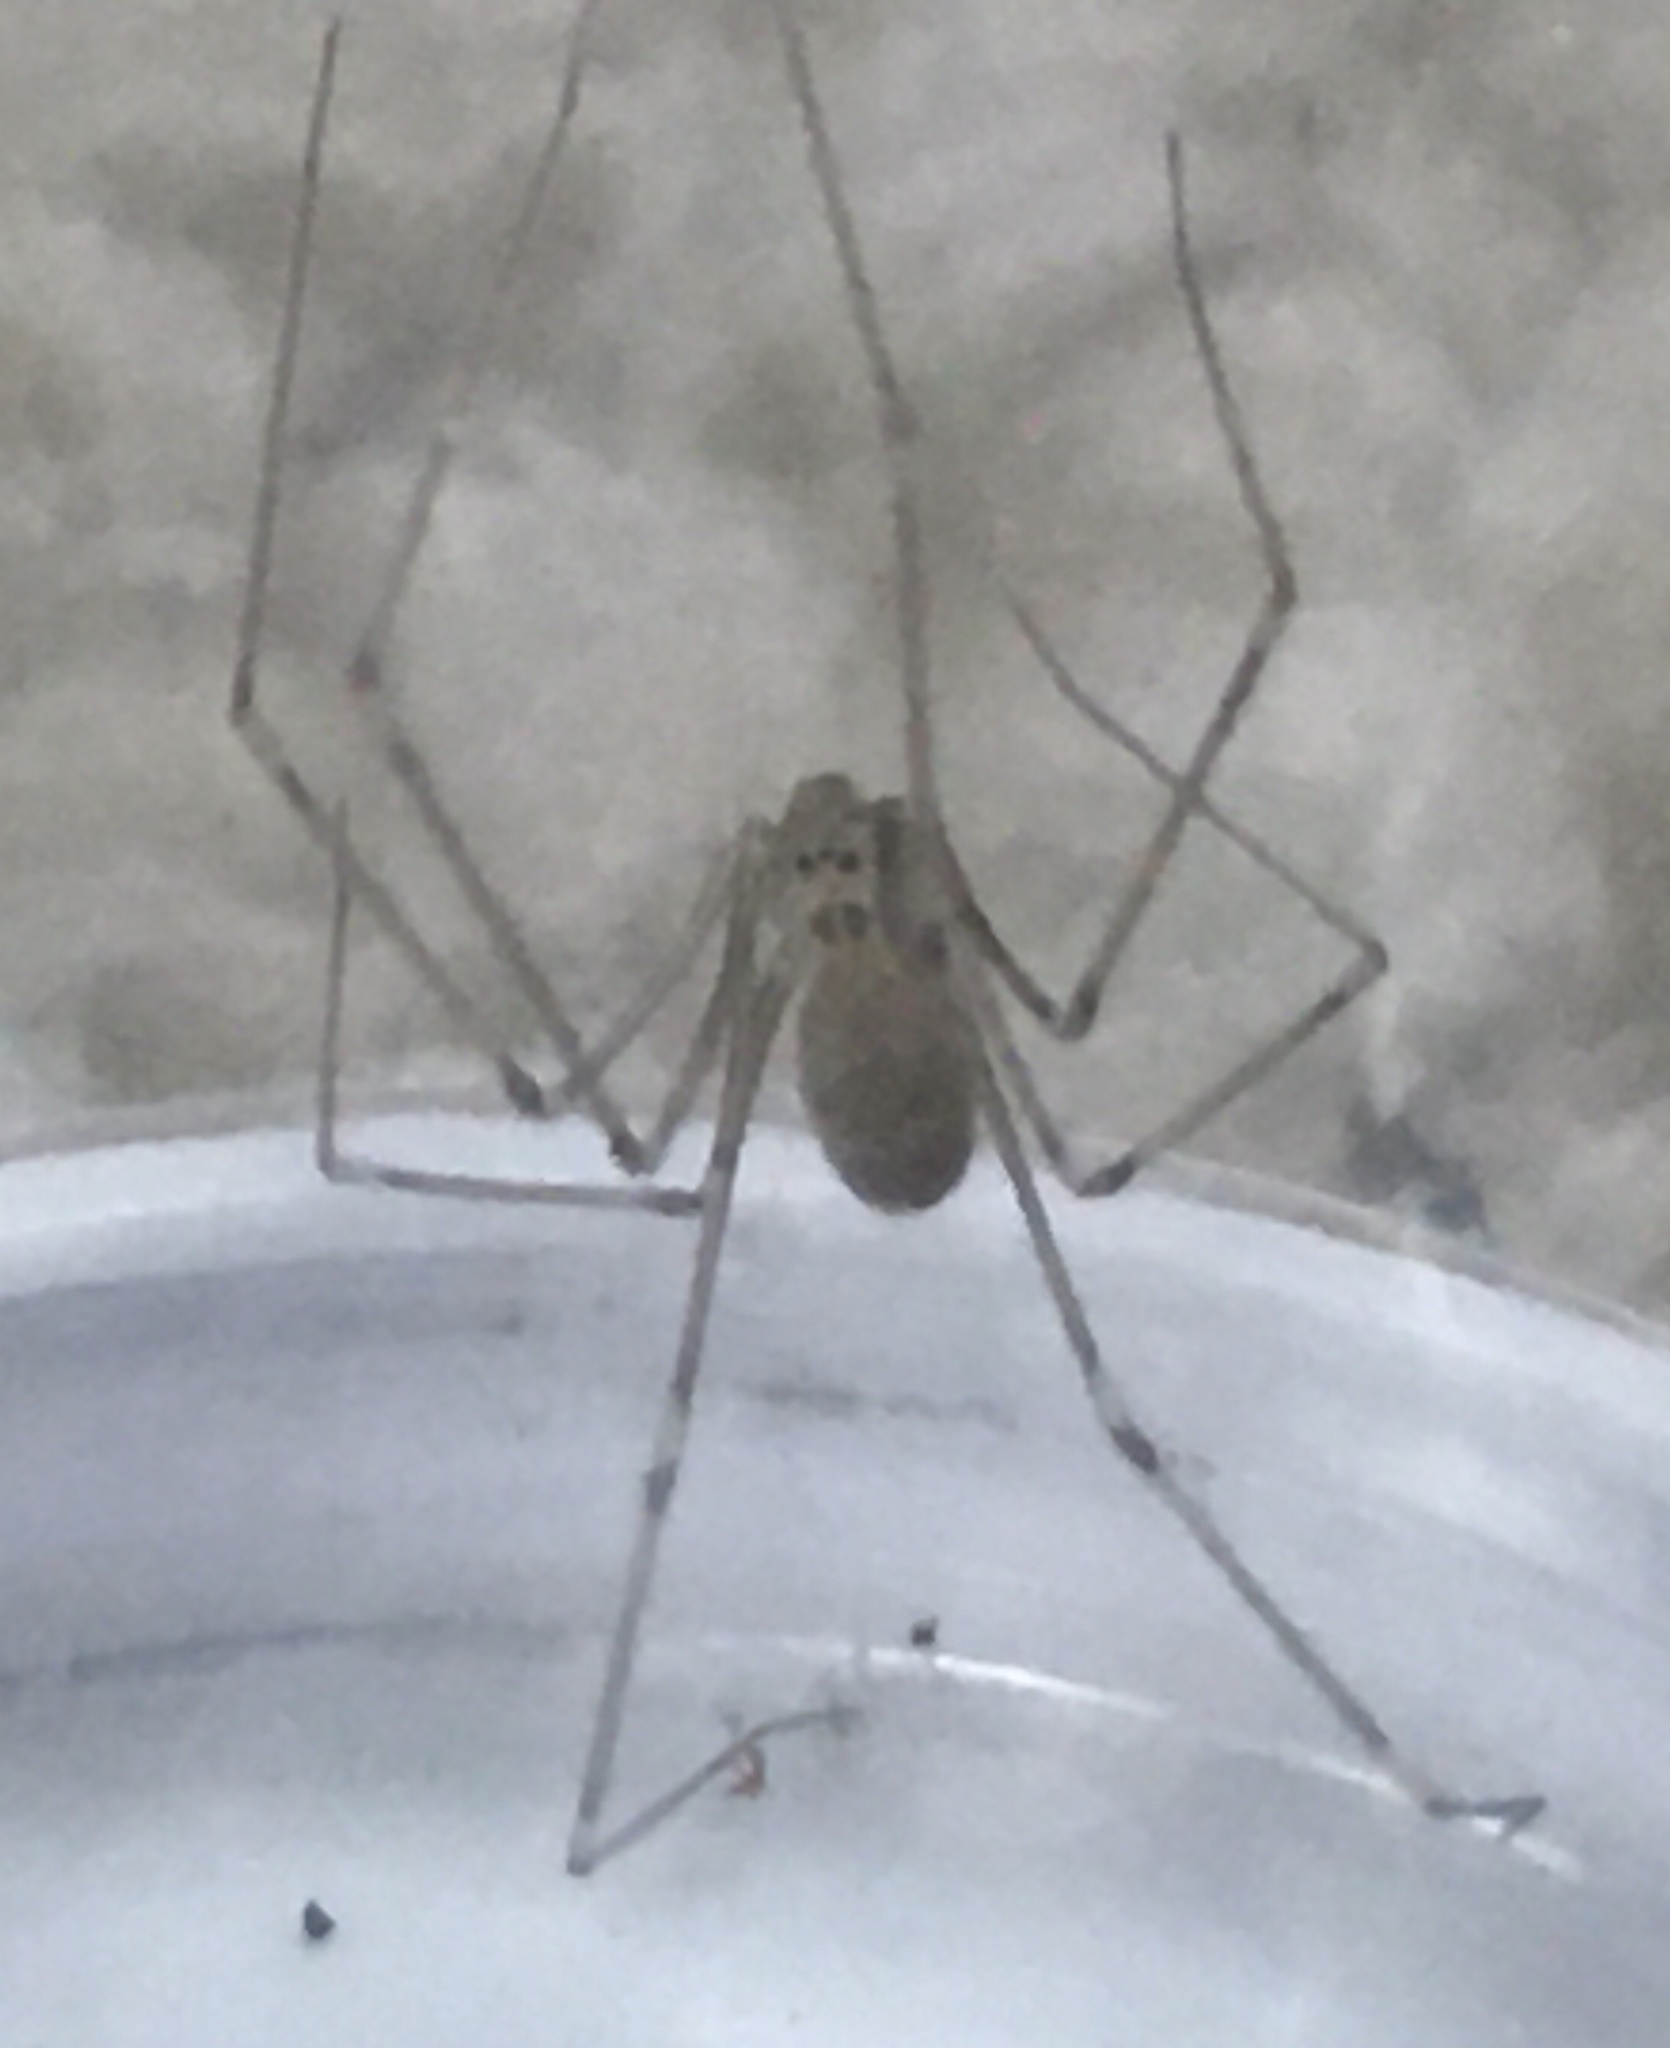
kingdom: Animalia
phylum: Arthropoda
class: Arachnida
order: Araneae
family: Pholcidae
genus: Pholcus
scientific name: Pholcus phalangioides
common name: Longbodied cellar spider
